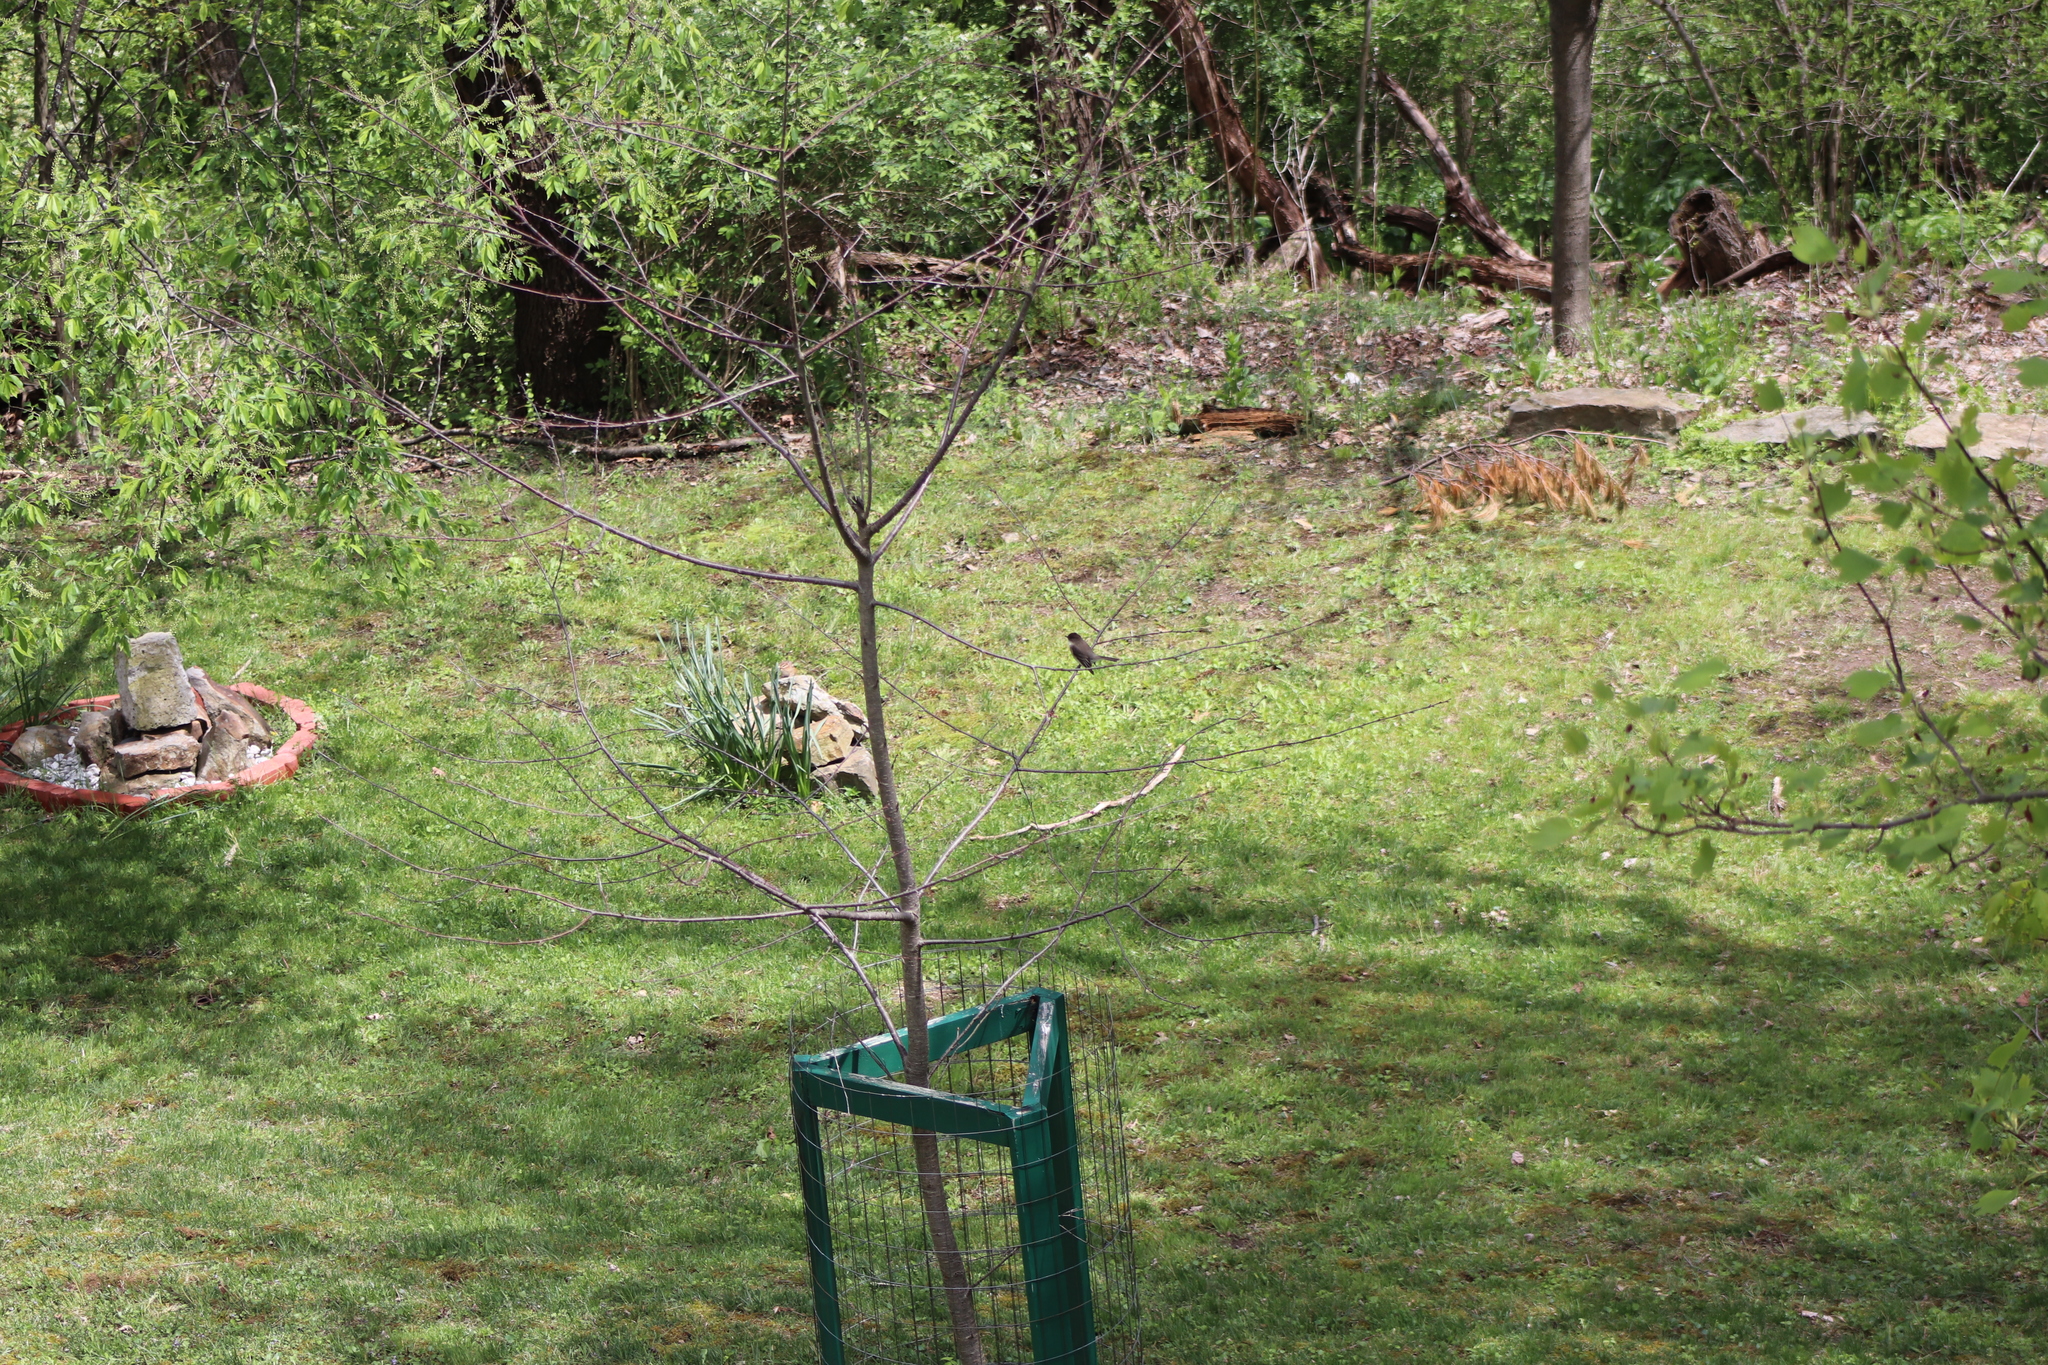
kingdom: Animalia
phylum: Chordata
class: Aves
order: Passeriformes
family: Tyrannidae
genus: Sayornis
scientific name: Sayornis phoebe
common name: Eastern phoebe
